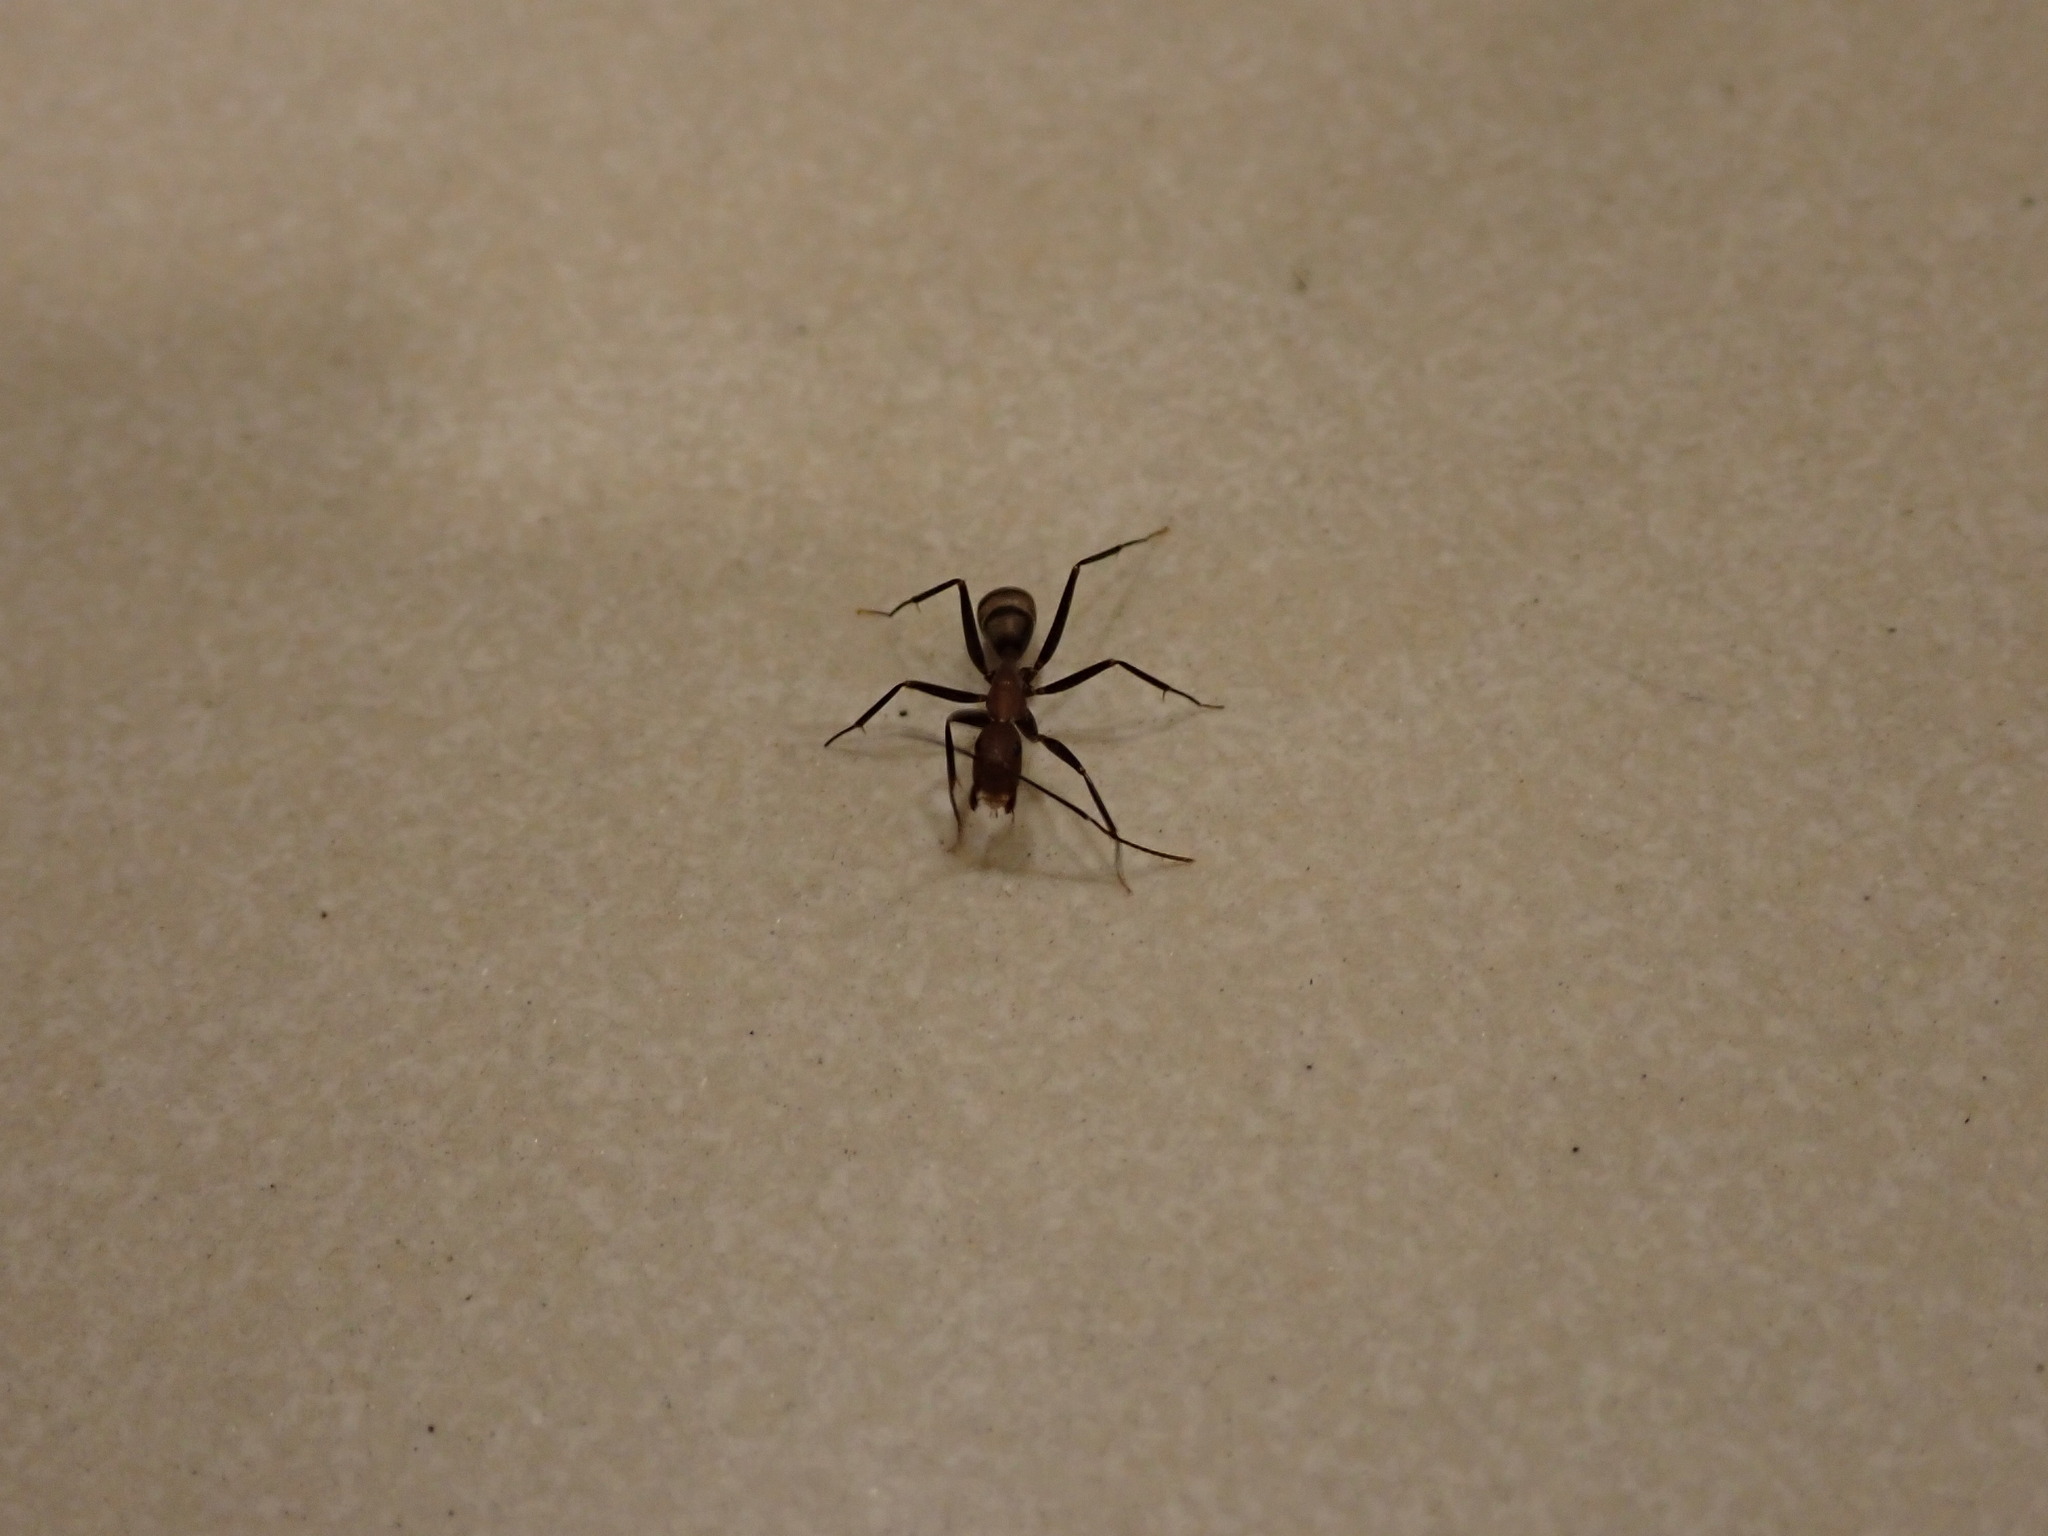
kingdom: Animalia
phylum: Arthropoda
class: Insecta
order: Hymenoptera
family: Formicidae
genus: Camponotus
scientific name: Camponotus habereri
